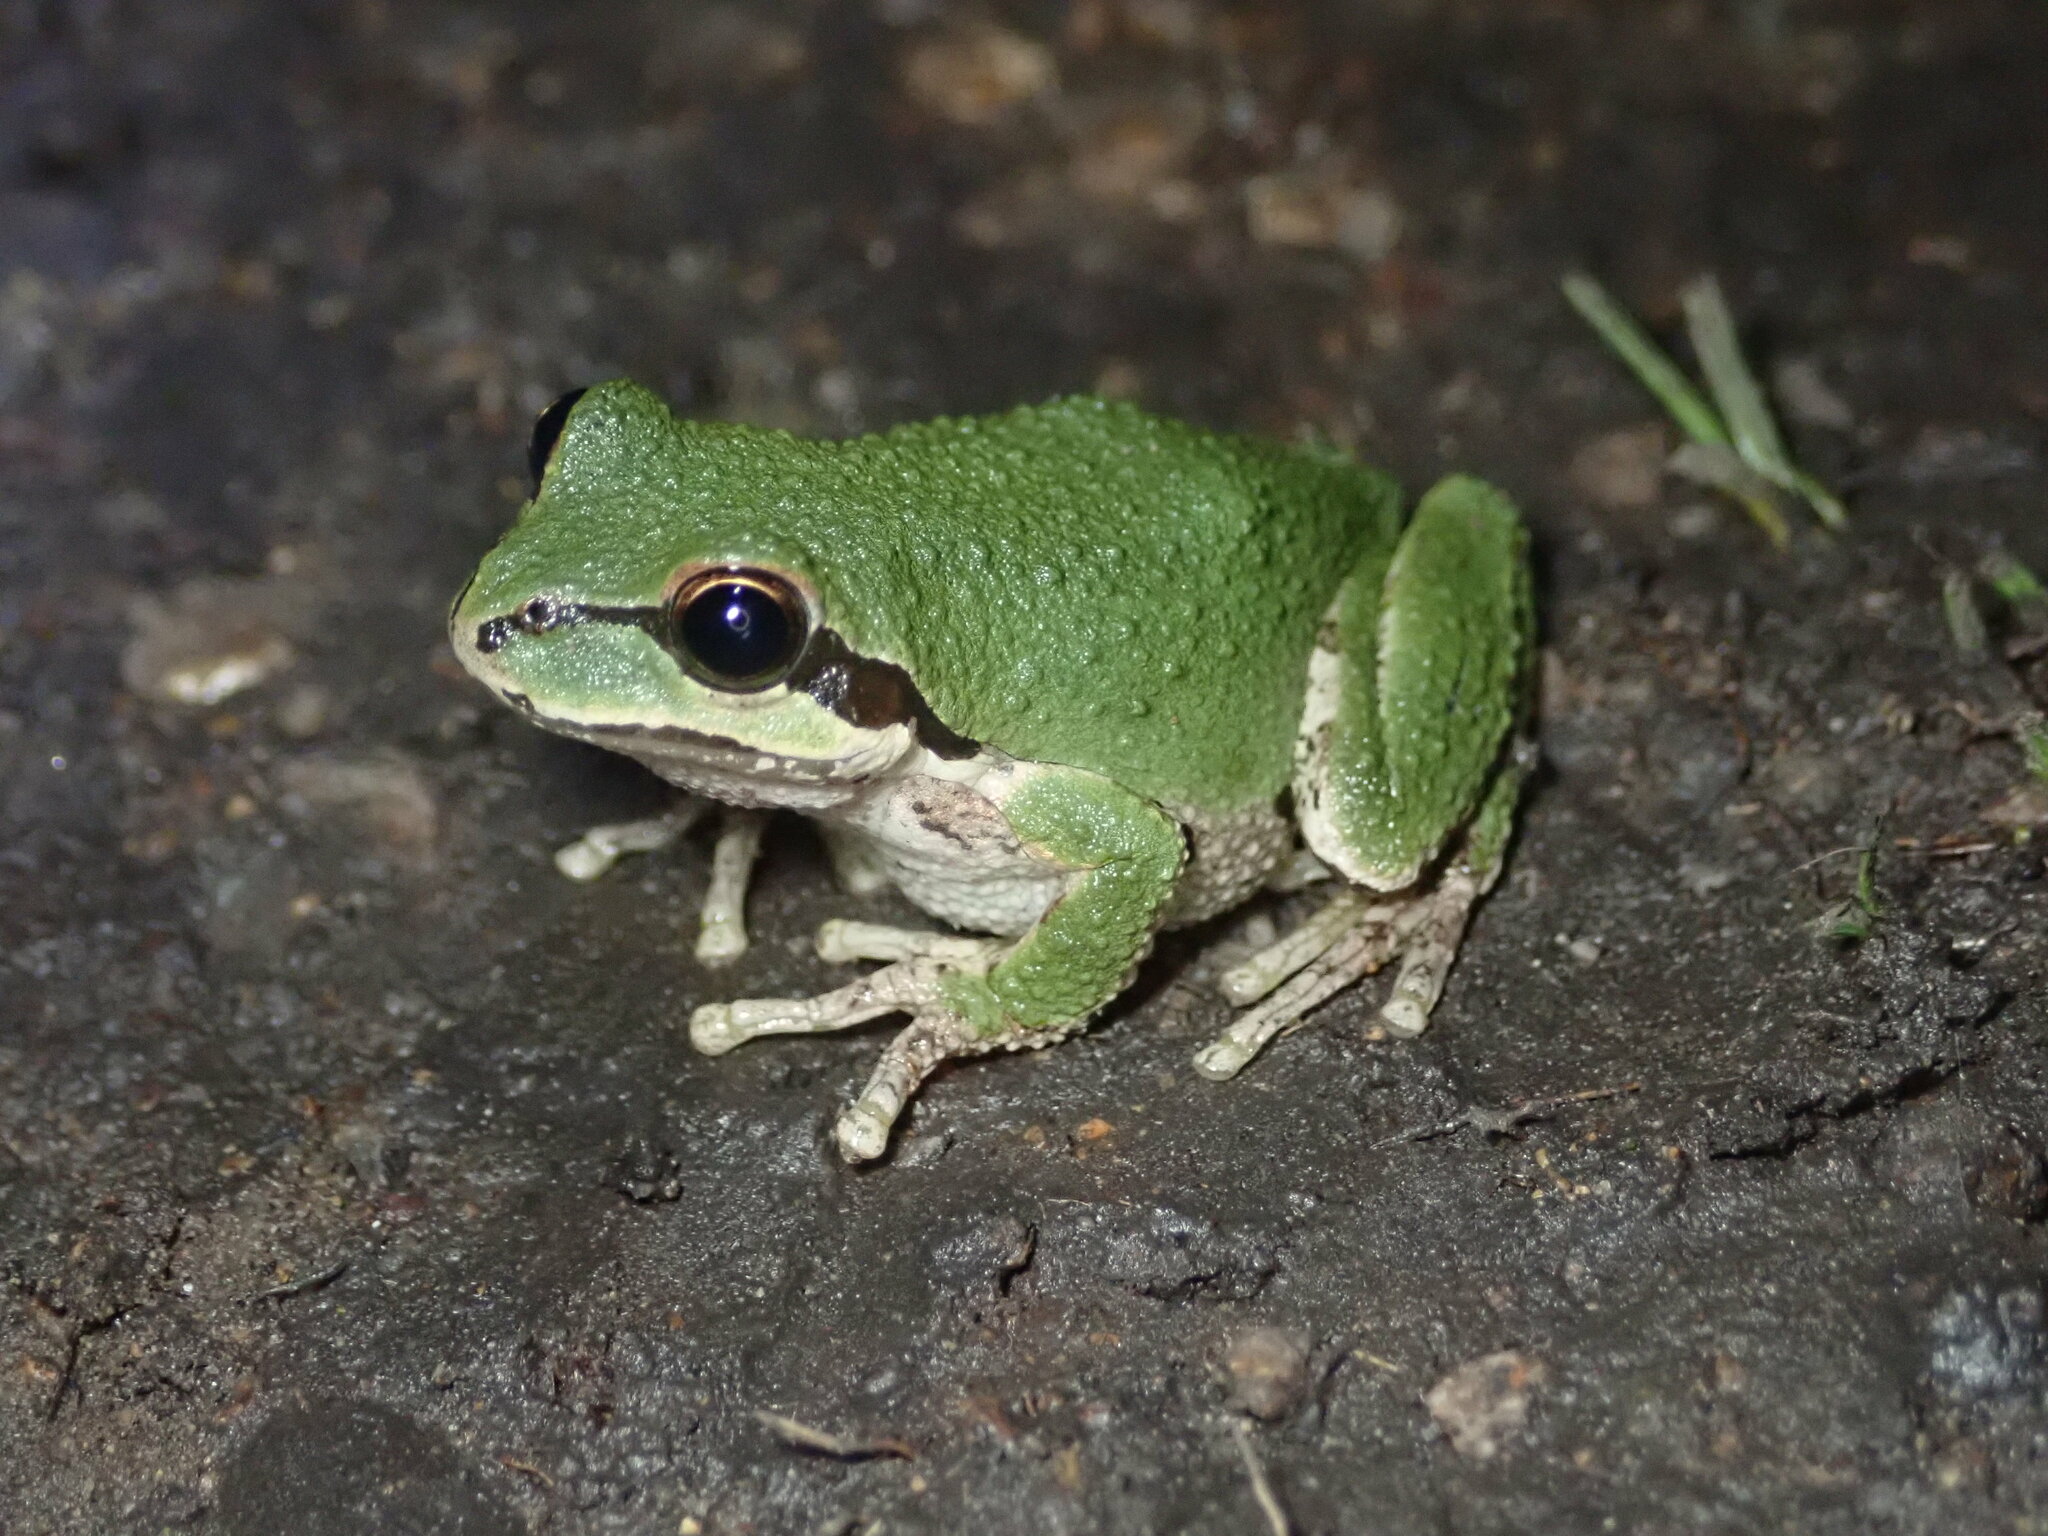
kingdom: Animalia
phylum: Chordata
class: Amphibia
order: Anura
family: Hylidae
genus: Pseudacris
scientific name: Pseudacris regilla
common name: Pacific chorus frog
